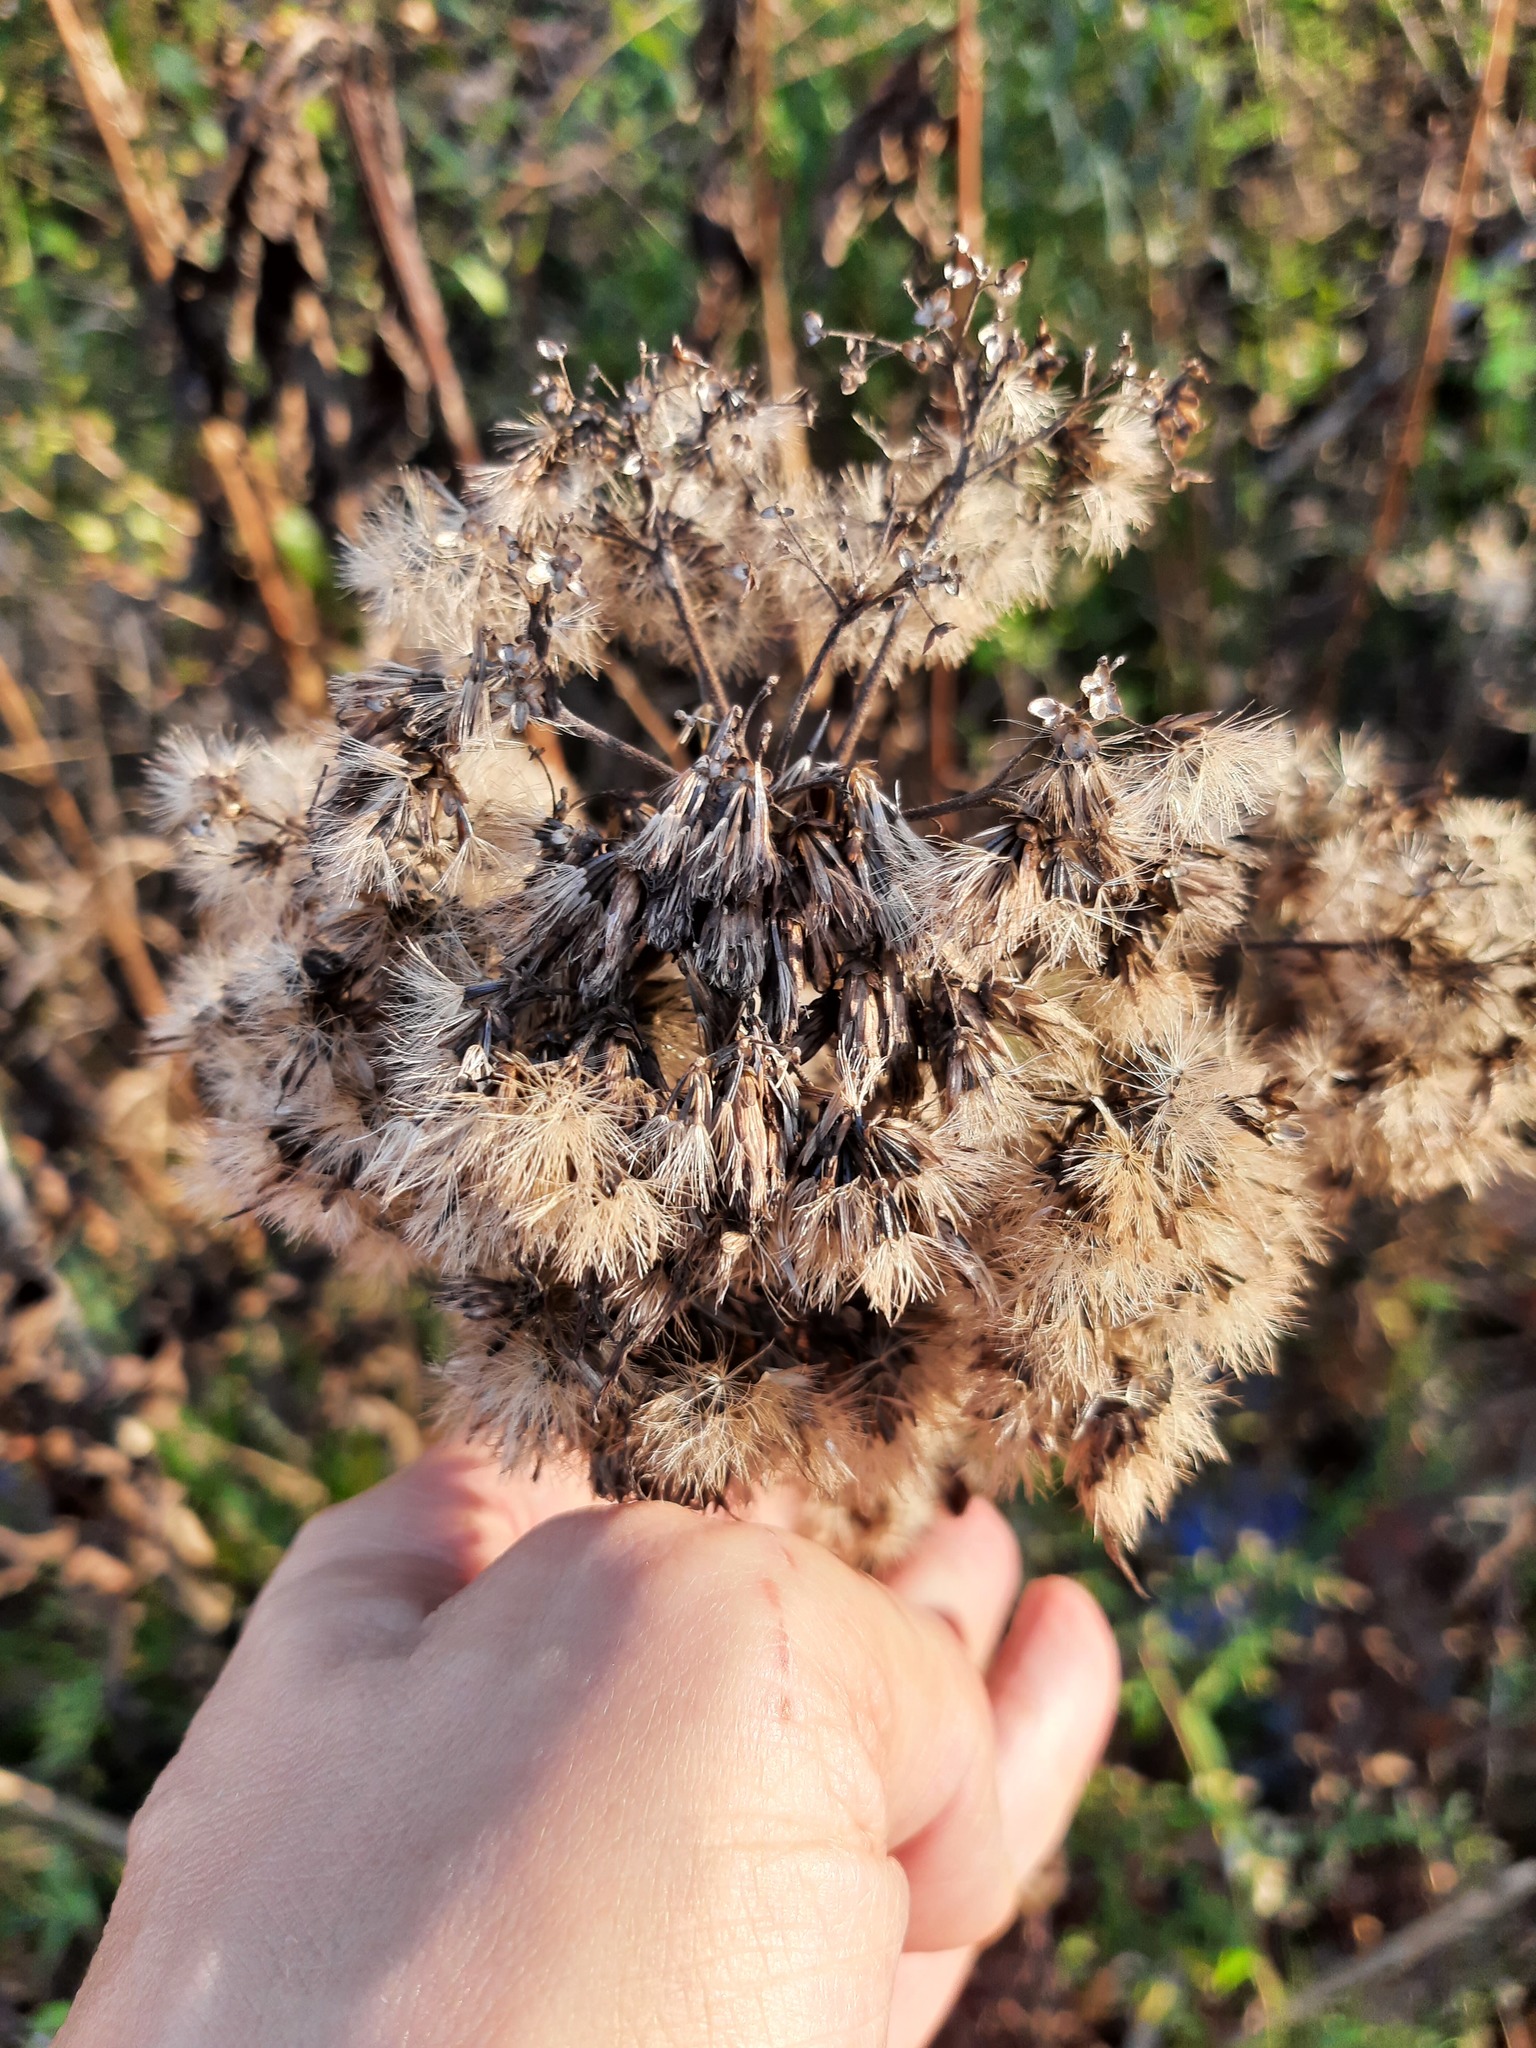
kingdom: Plantae
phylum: Tracheophyta
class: Magnoliopsida
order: Asterales
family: Asteraceae
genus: Eutrochium
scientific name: Eutrochium maculatum
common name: Spotted joe pye weed
